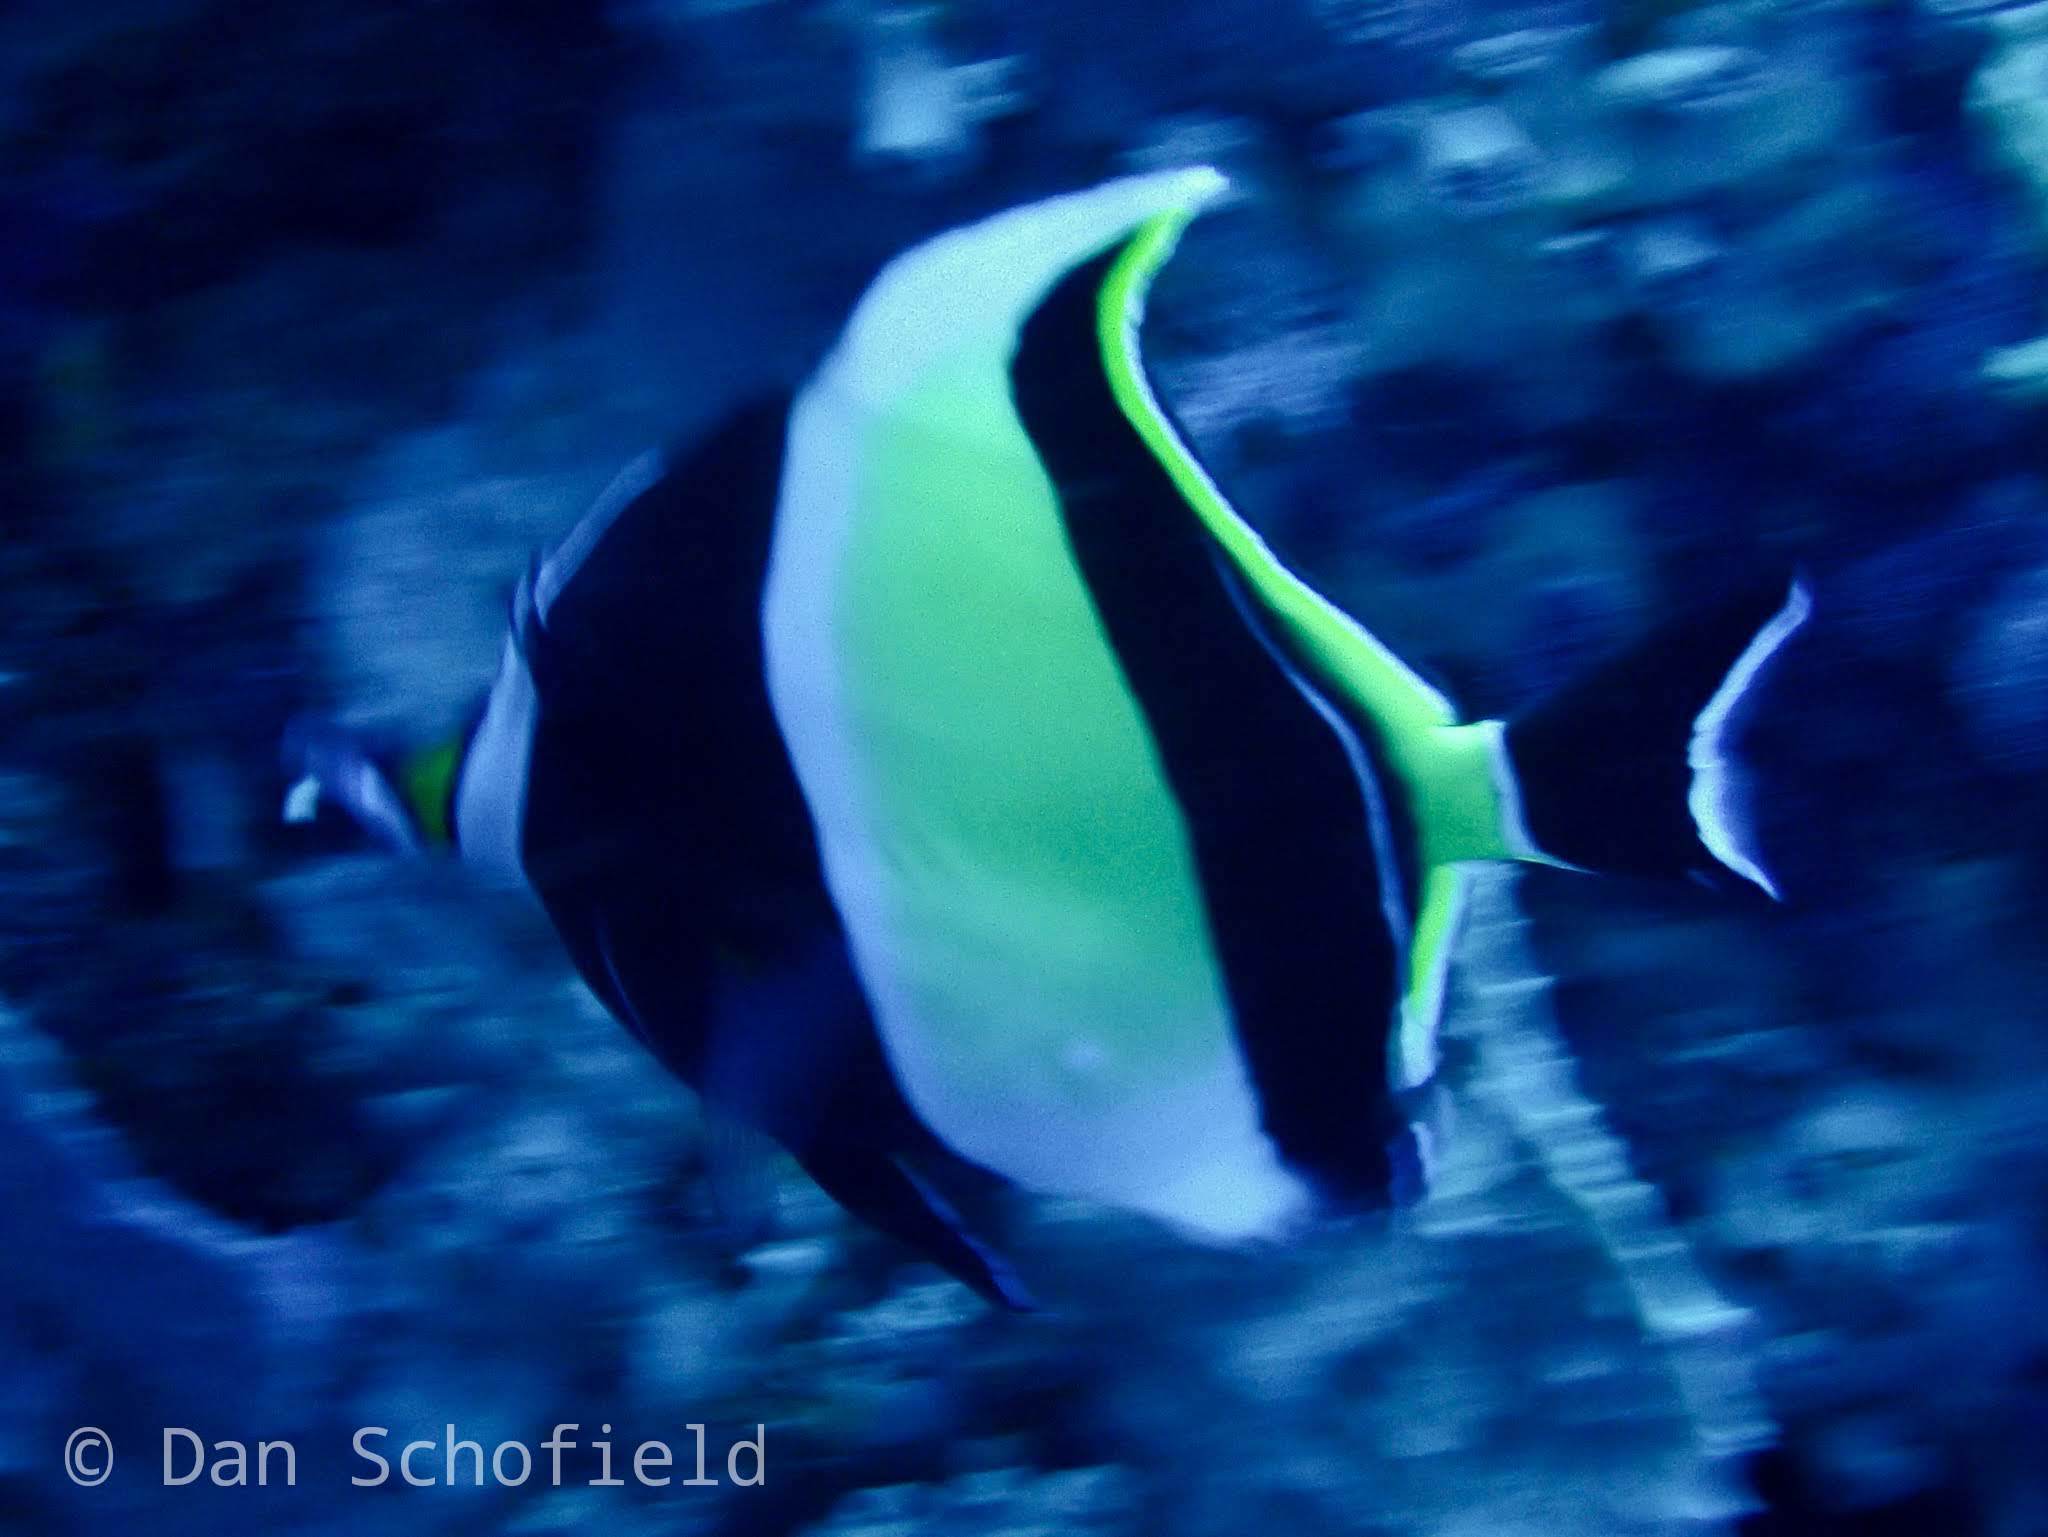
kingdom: Animalia
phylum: Chordata
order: Perciformes
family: Zanclidae
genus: Zanclus
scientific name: Zanclus cornutus
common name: Moorish idol
